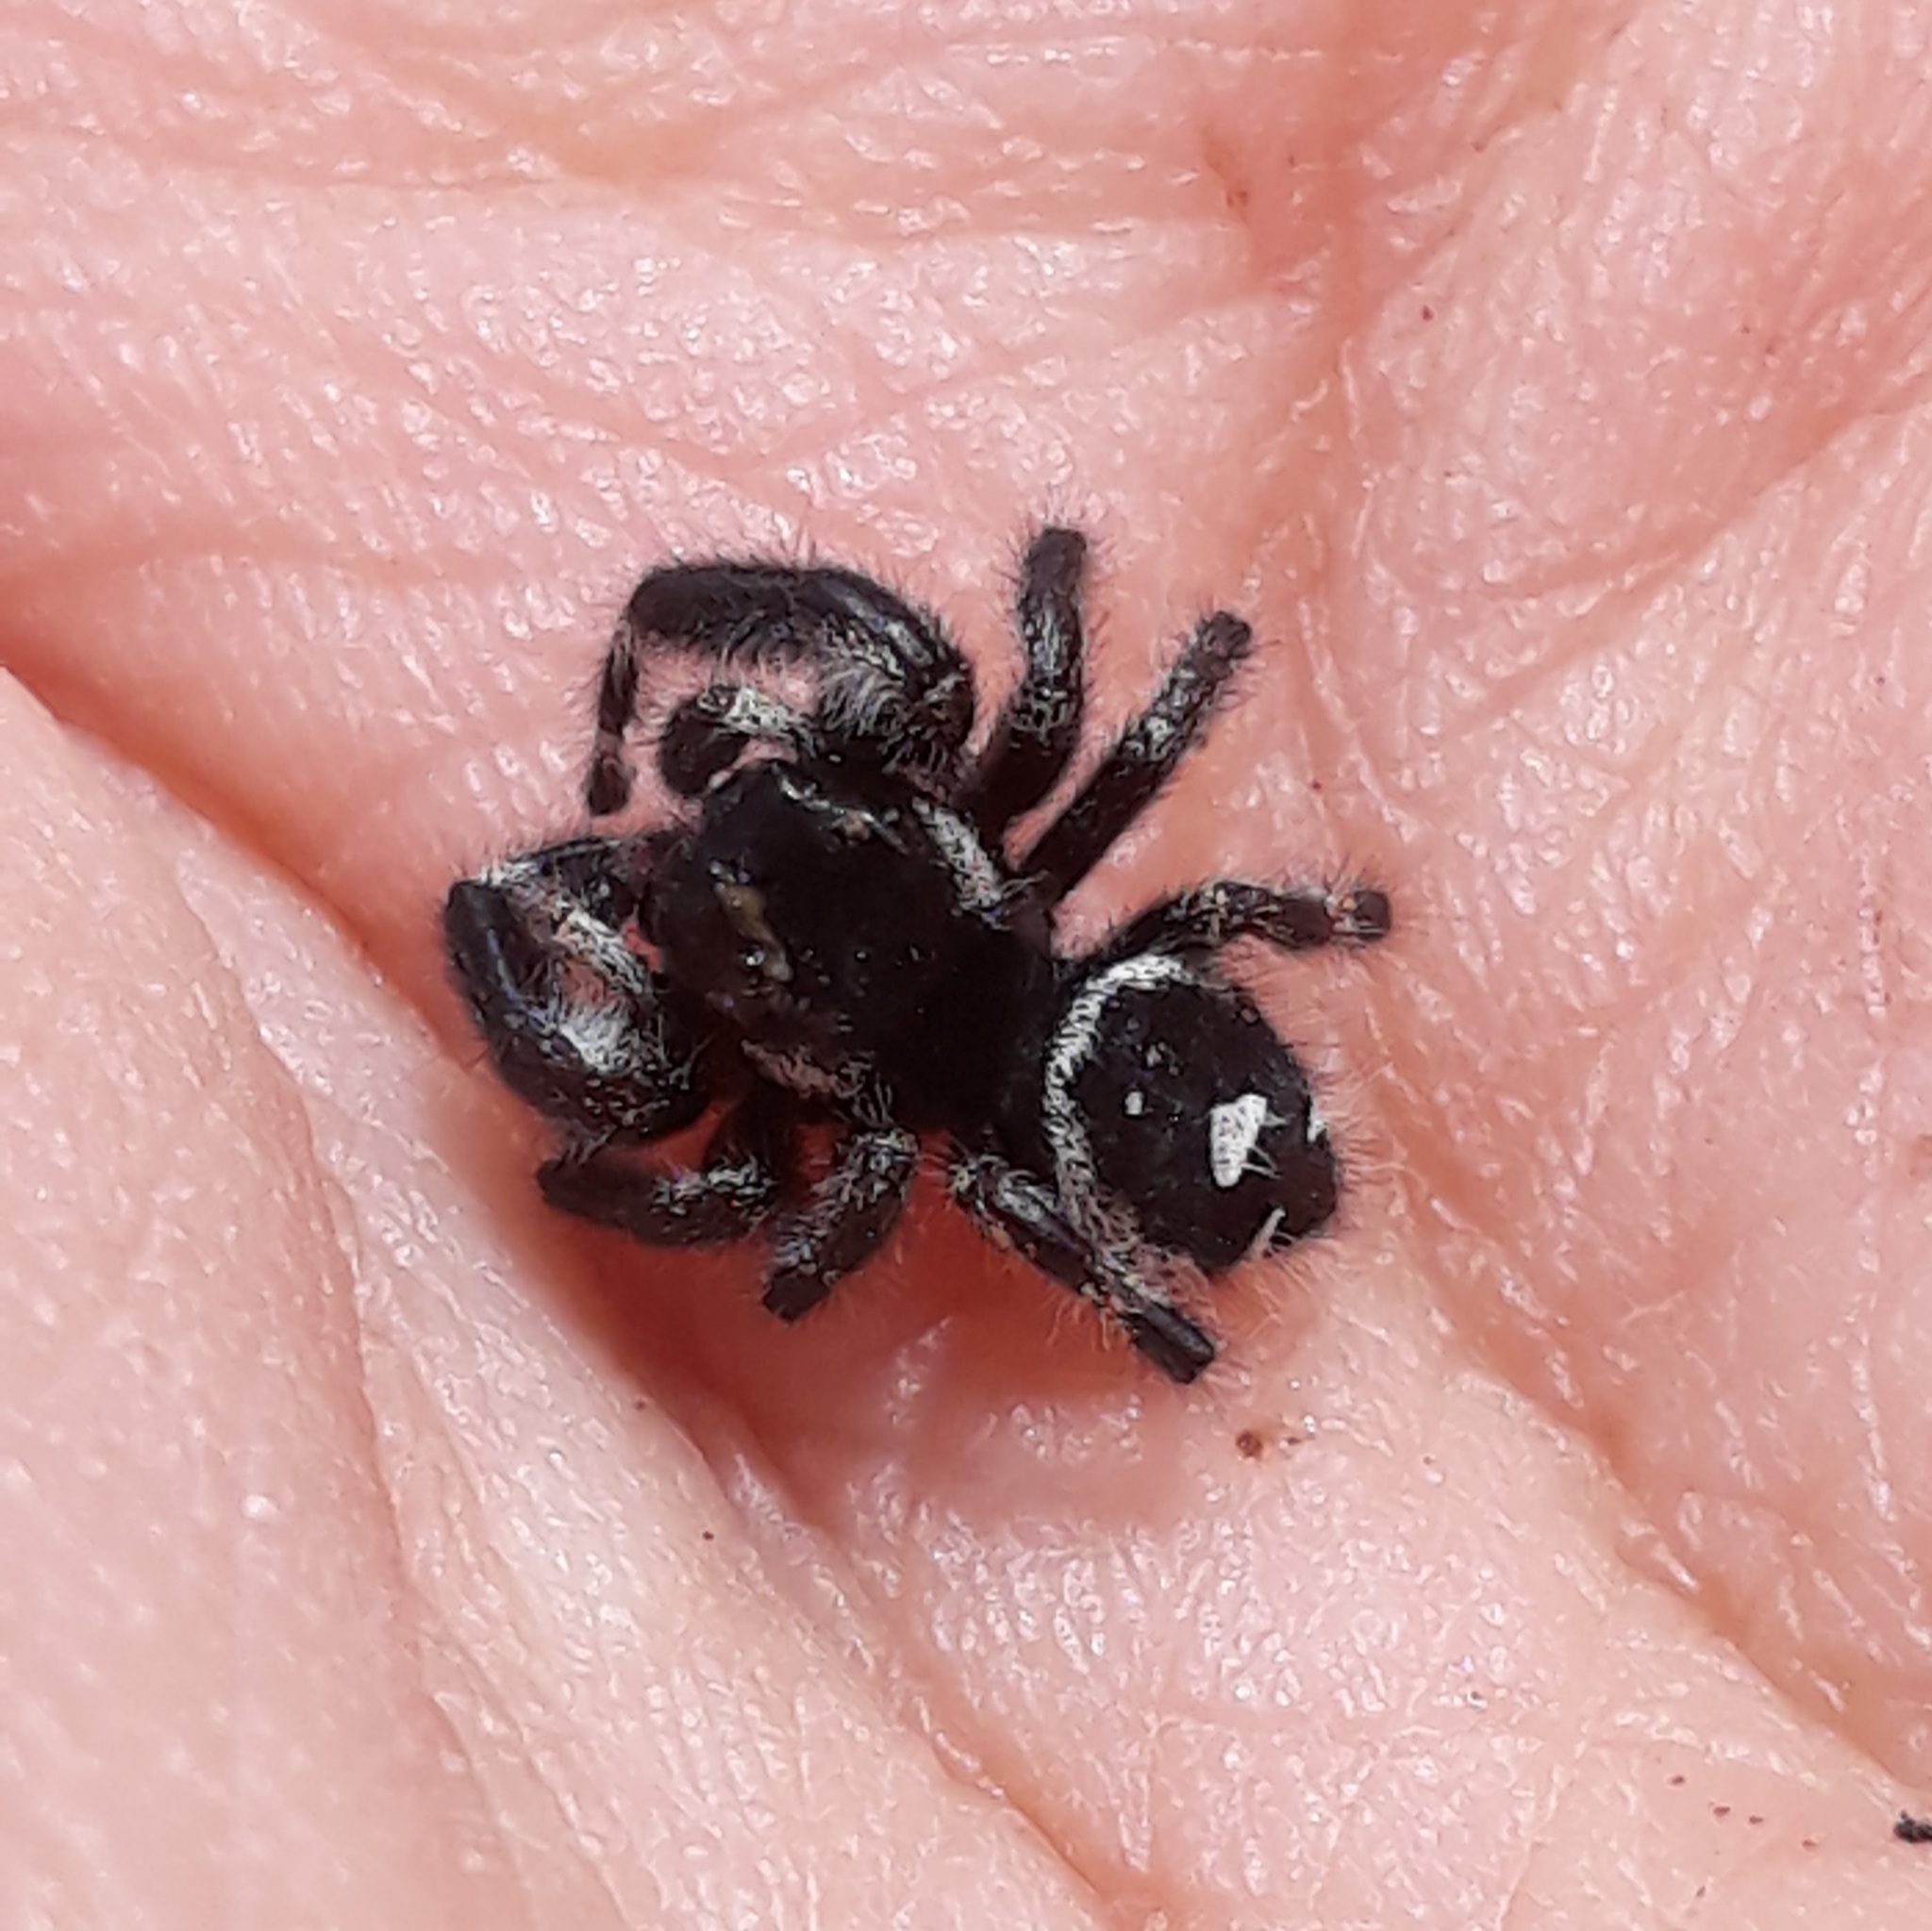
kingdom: Animalia
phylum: Arthropoda
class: Arachnida
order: Araneae
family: Salticidae
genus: Phidippus
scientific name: Phidippus audax
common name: Bold jumper
